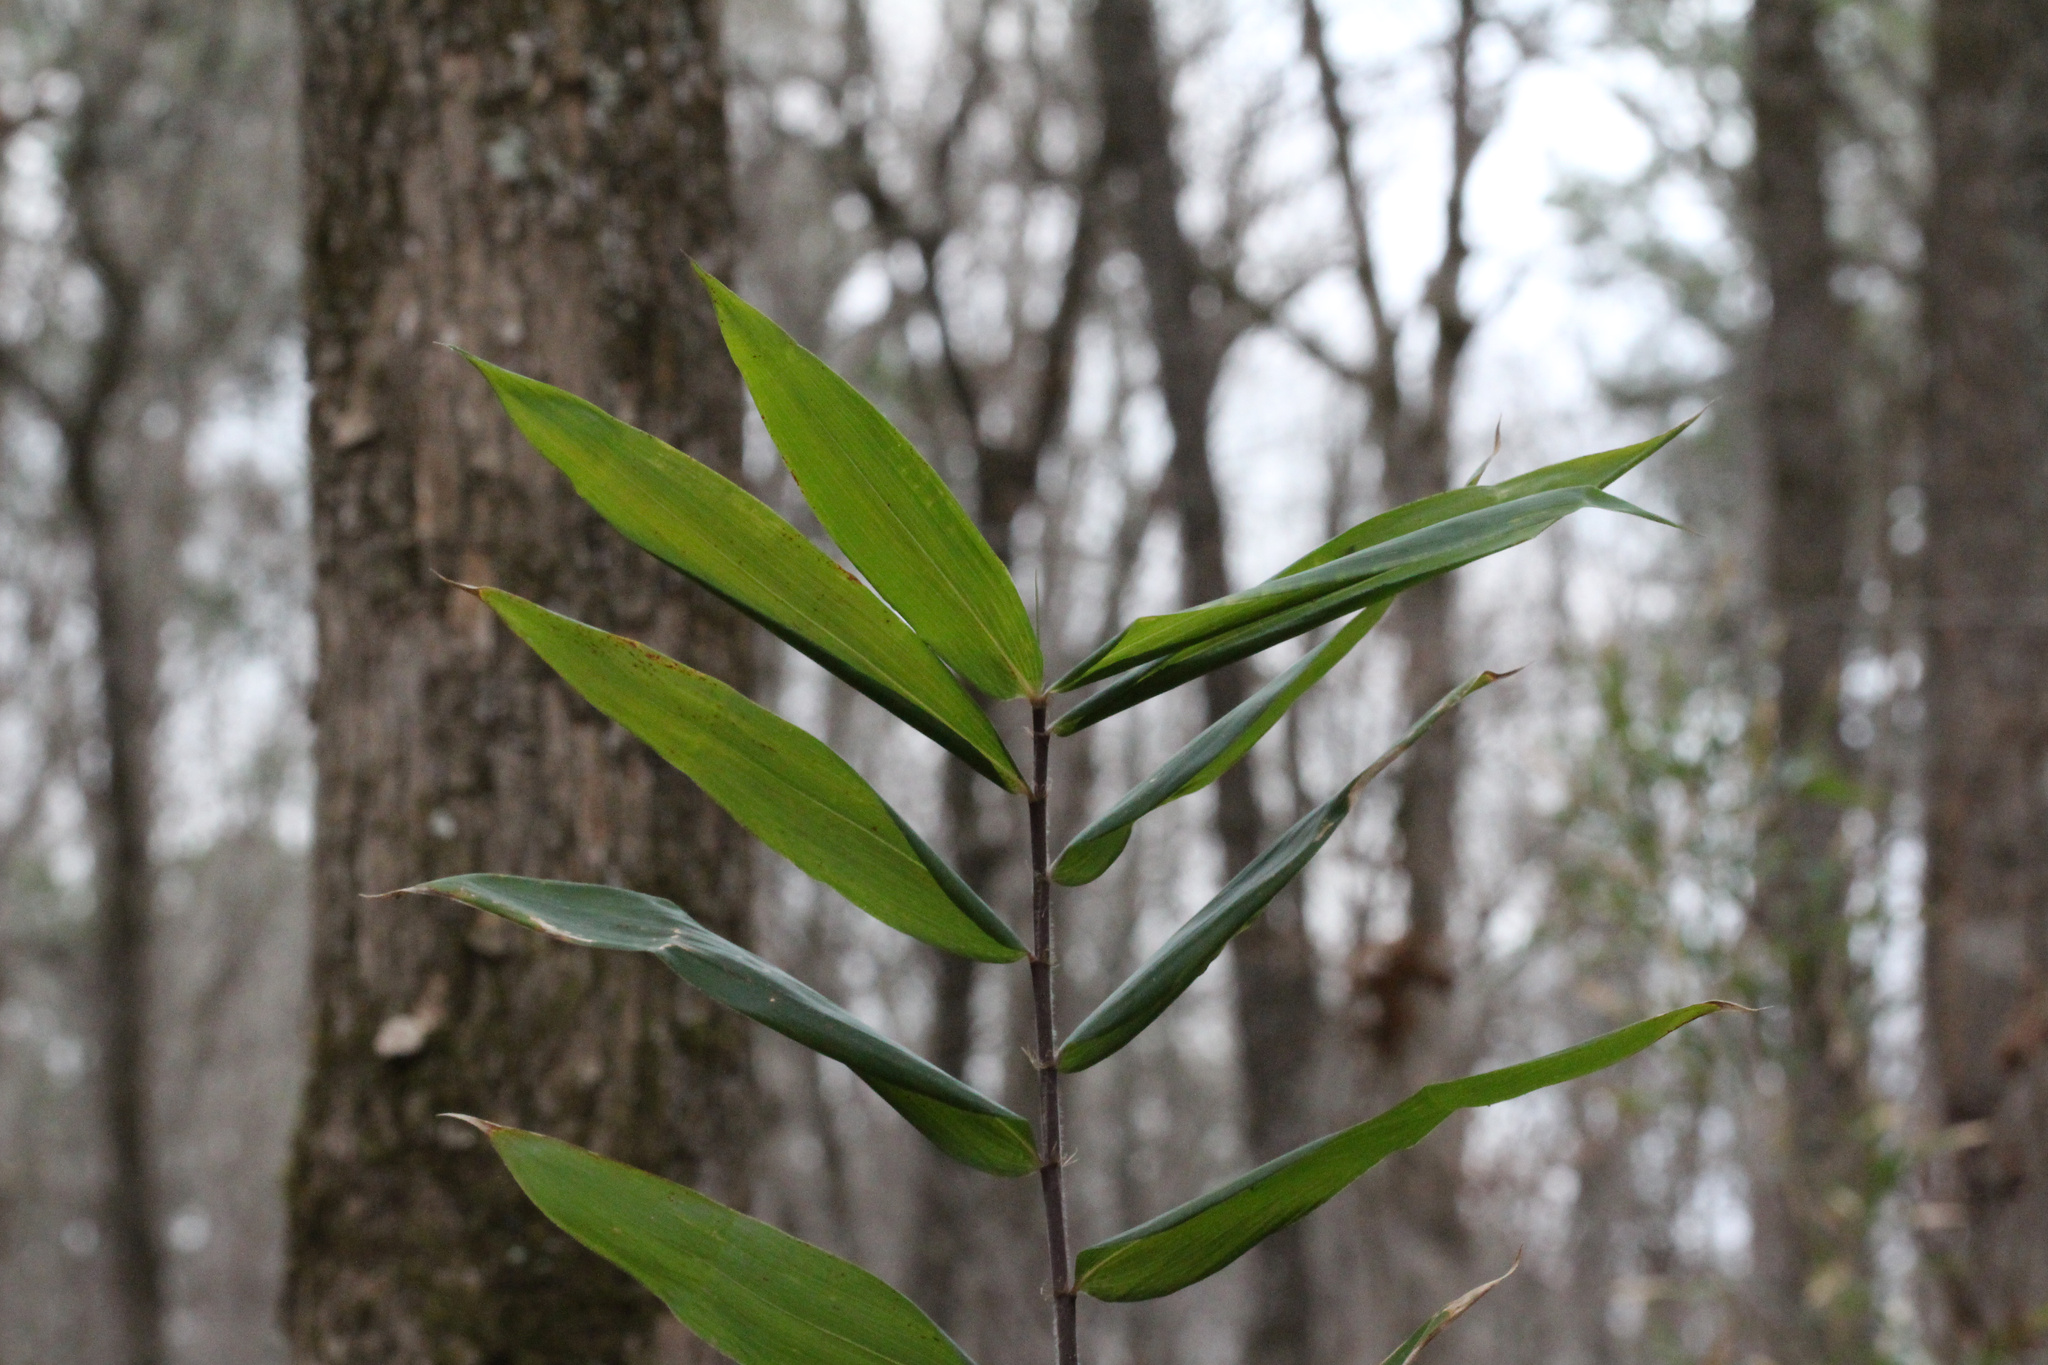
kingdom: Plantae
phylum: Tracheophyta
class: Liliopsida
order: Poales
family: Poaceae
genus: Arundinaria
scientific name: Arundinaria gigantea
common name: Giant cane
